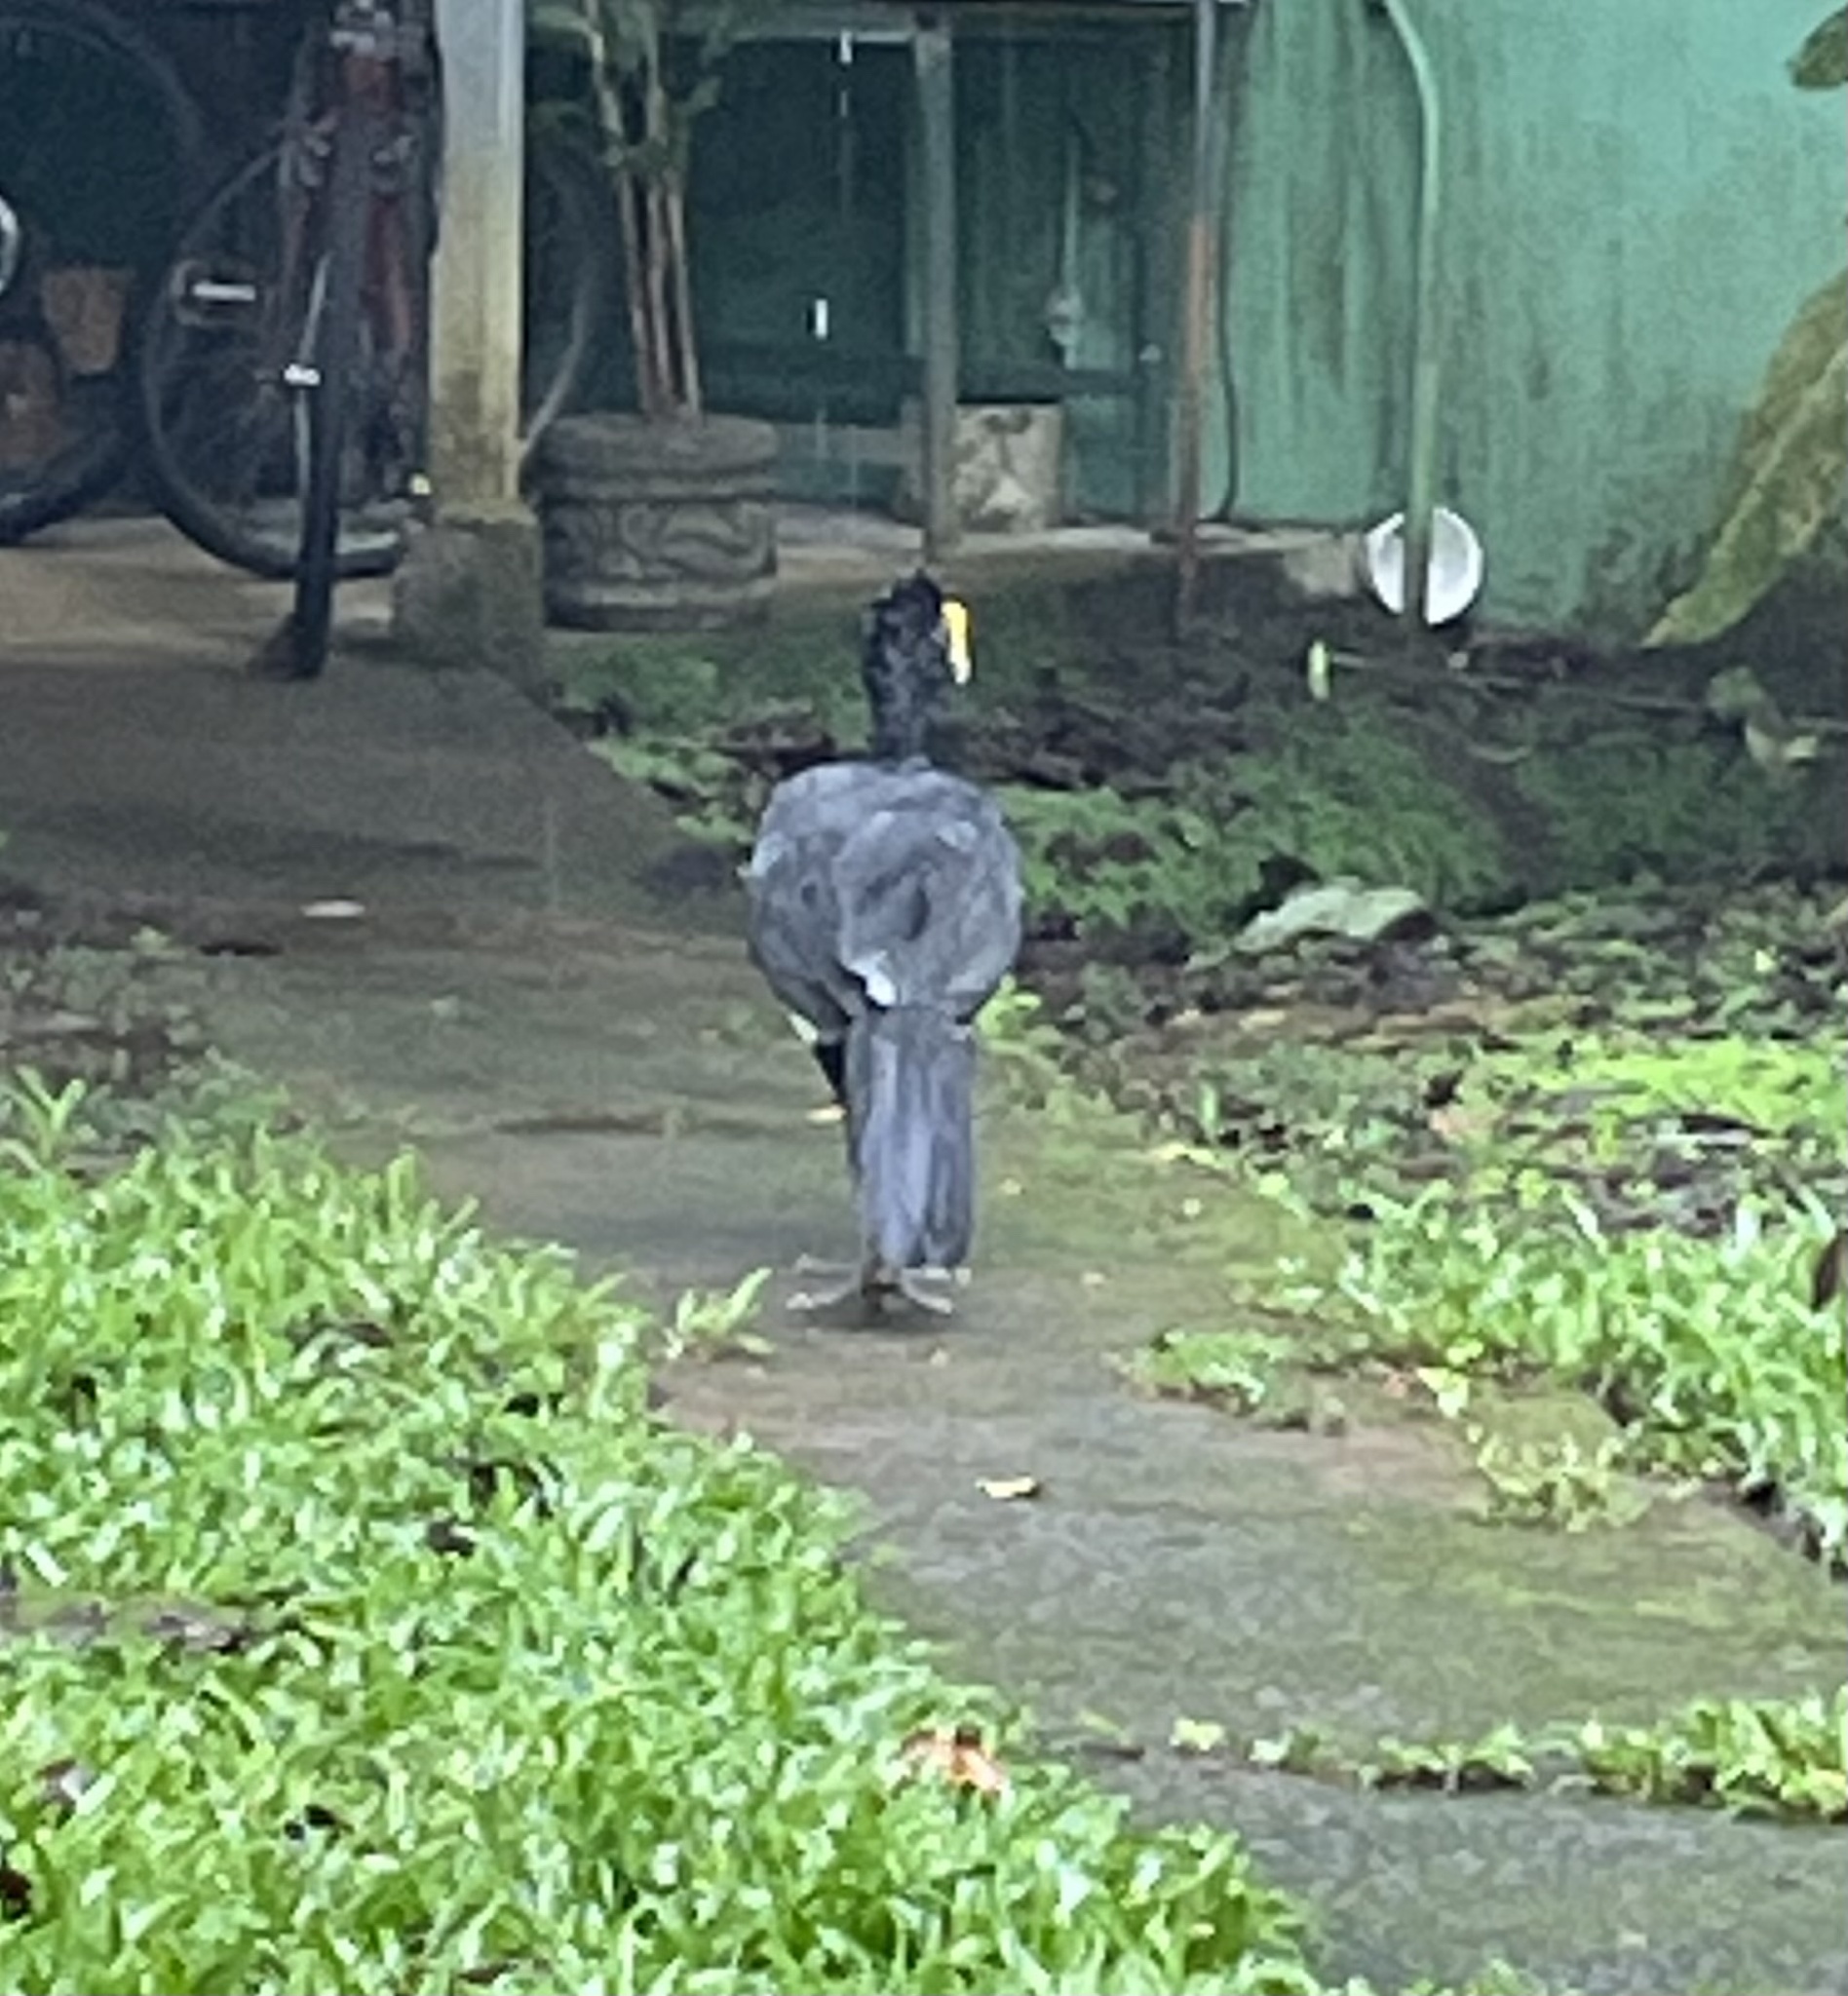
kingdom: Animalia
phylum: Chordata
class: Aves
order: Galliformes
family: Cracidae
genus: Crax
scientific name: Crax rubra
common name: Great curassow
